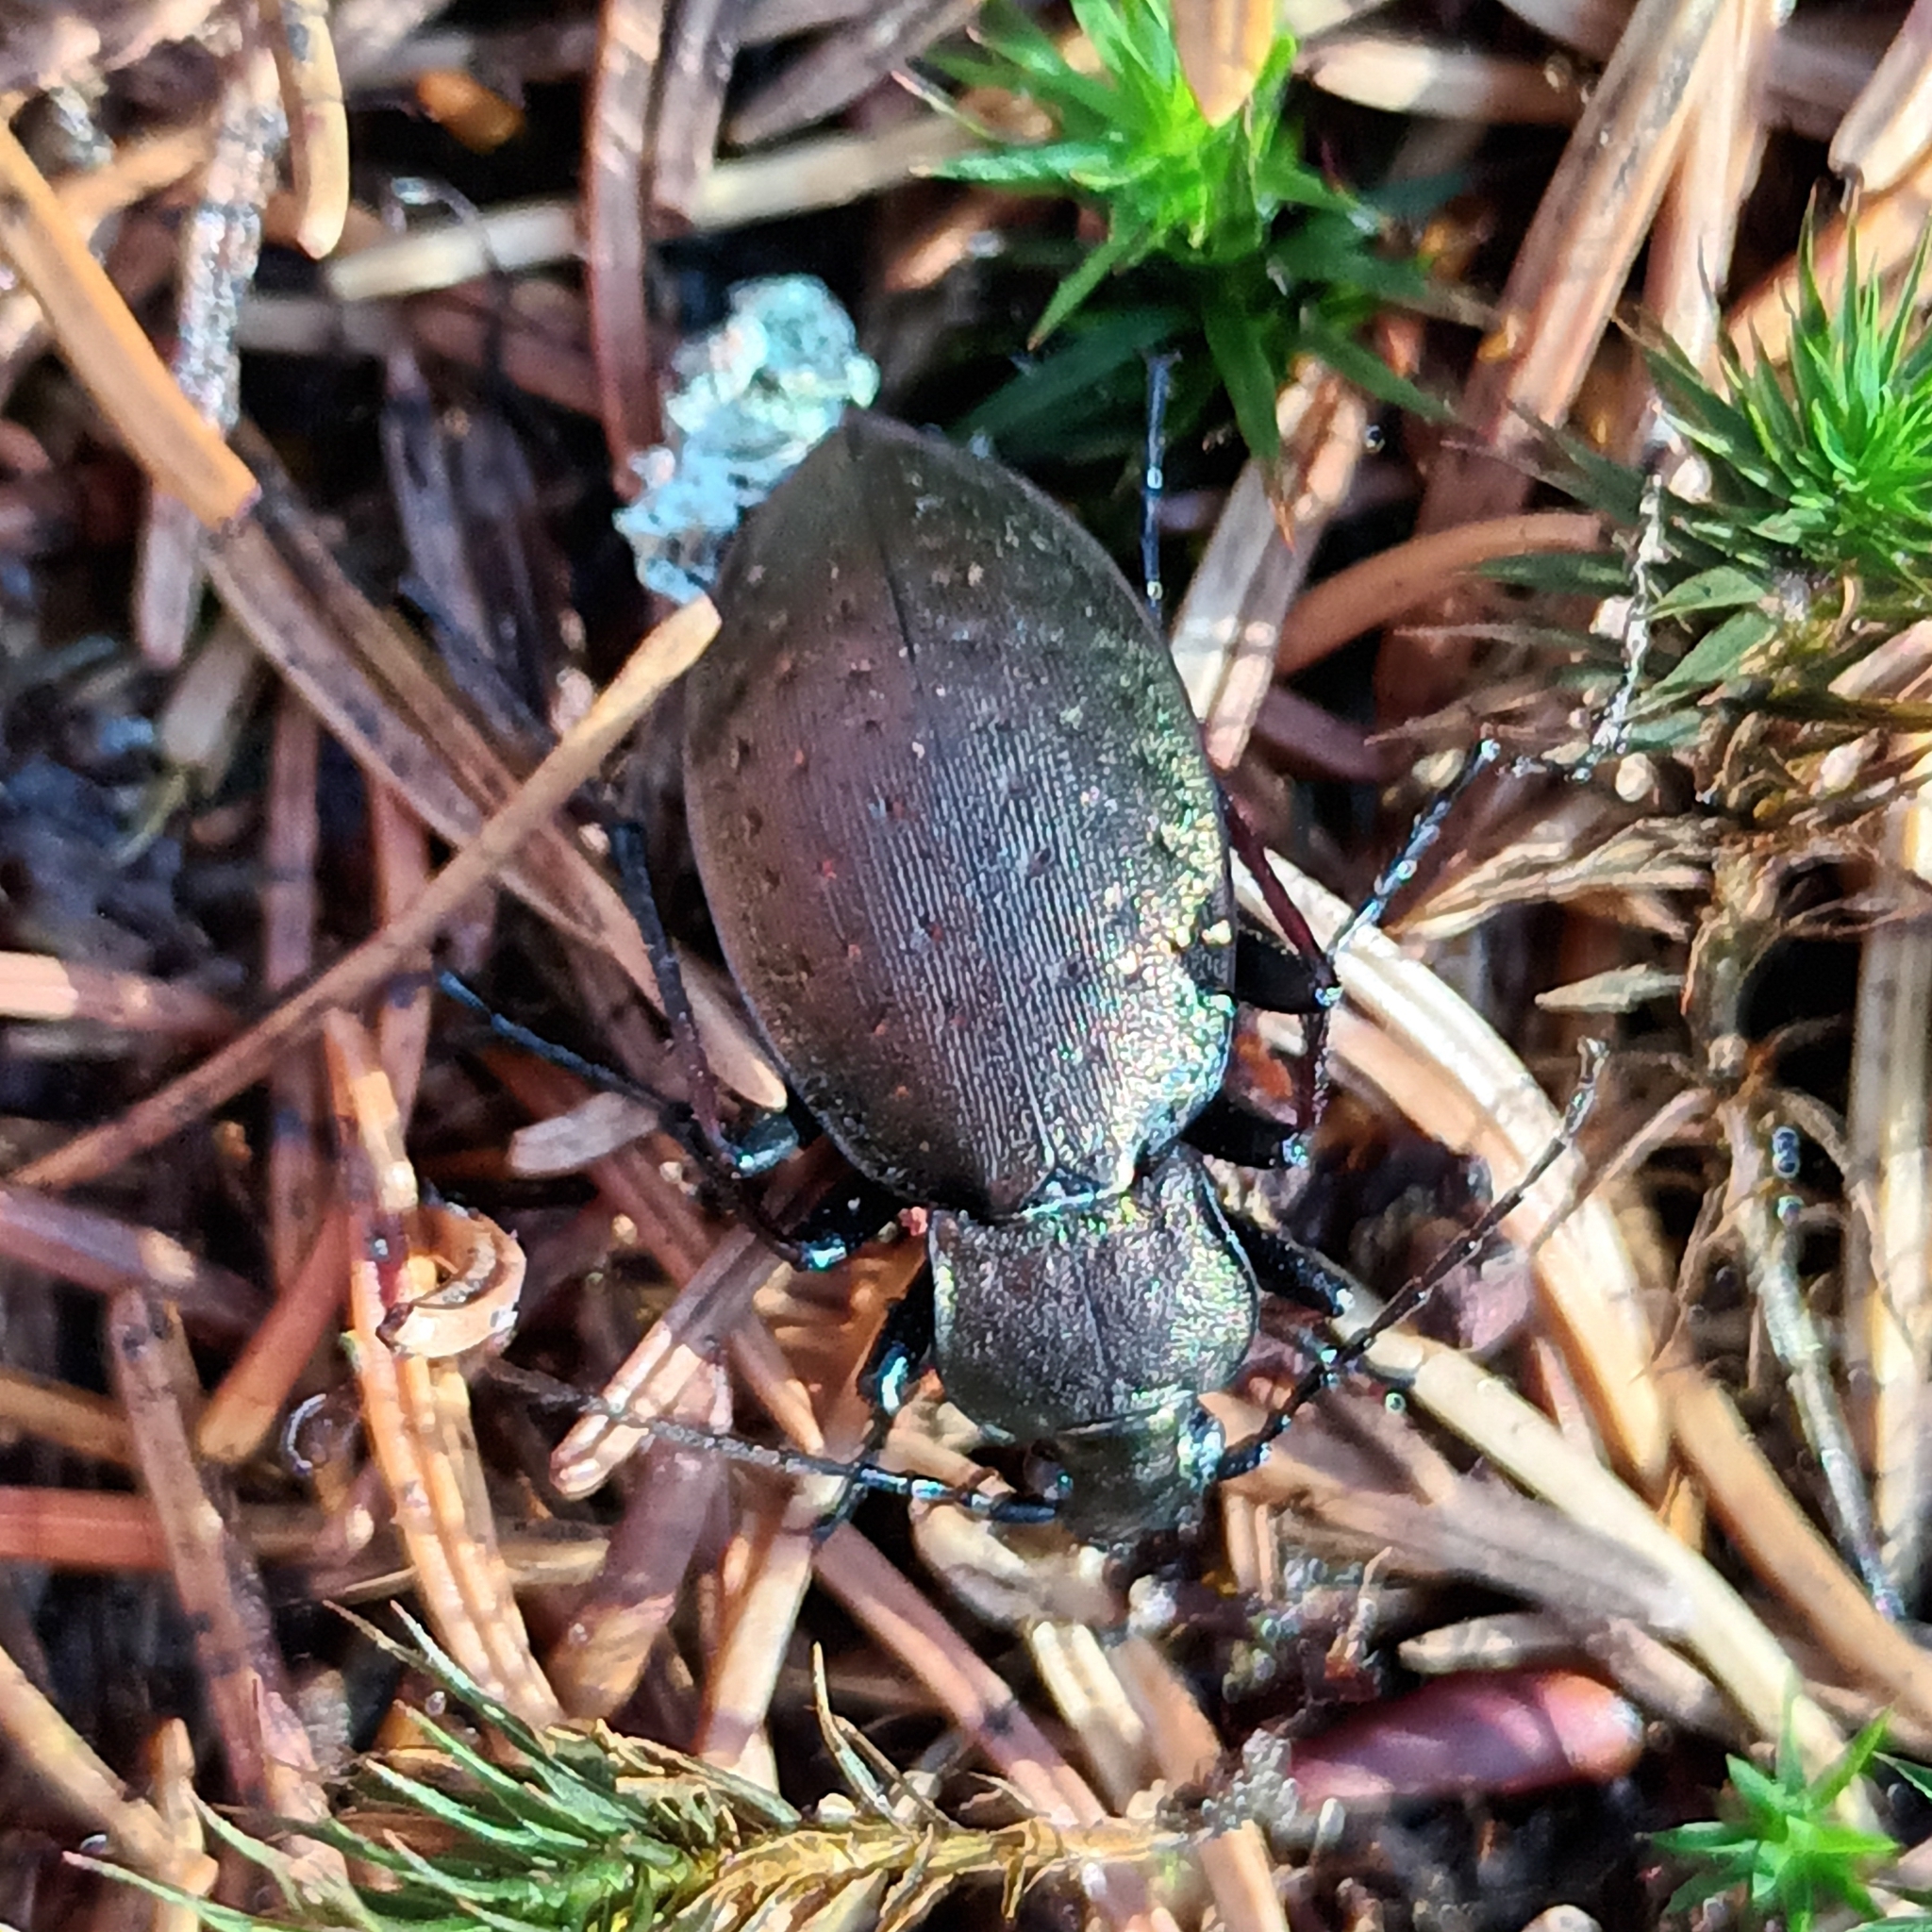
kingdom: Animalia
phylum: Arthropoda
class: Insecta
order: Coleoptera
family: Carabidae
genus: Carabus
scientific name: Carabus sylvestris
